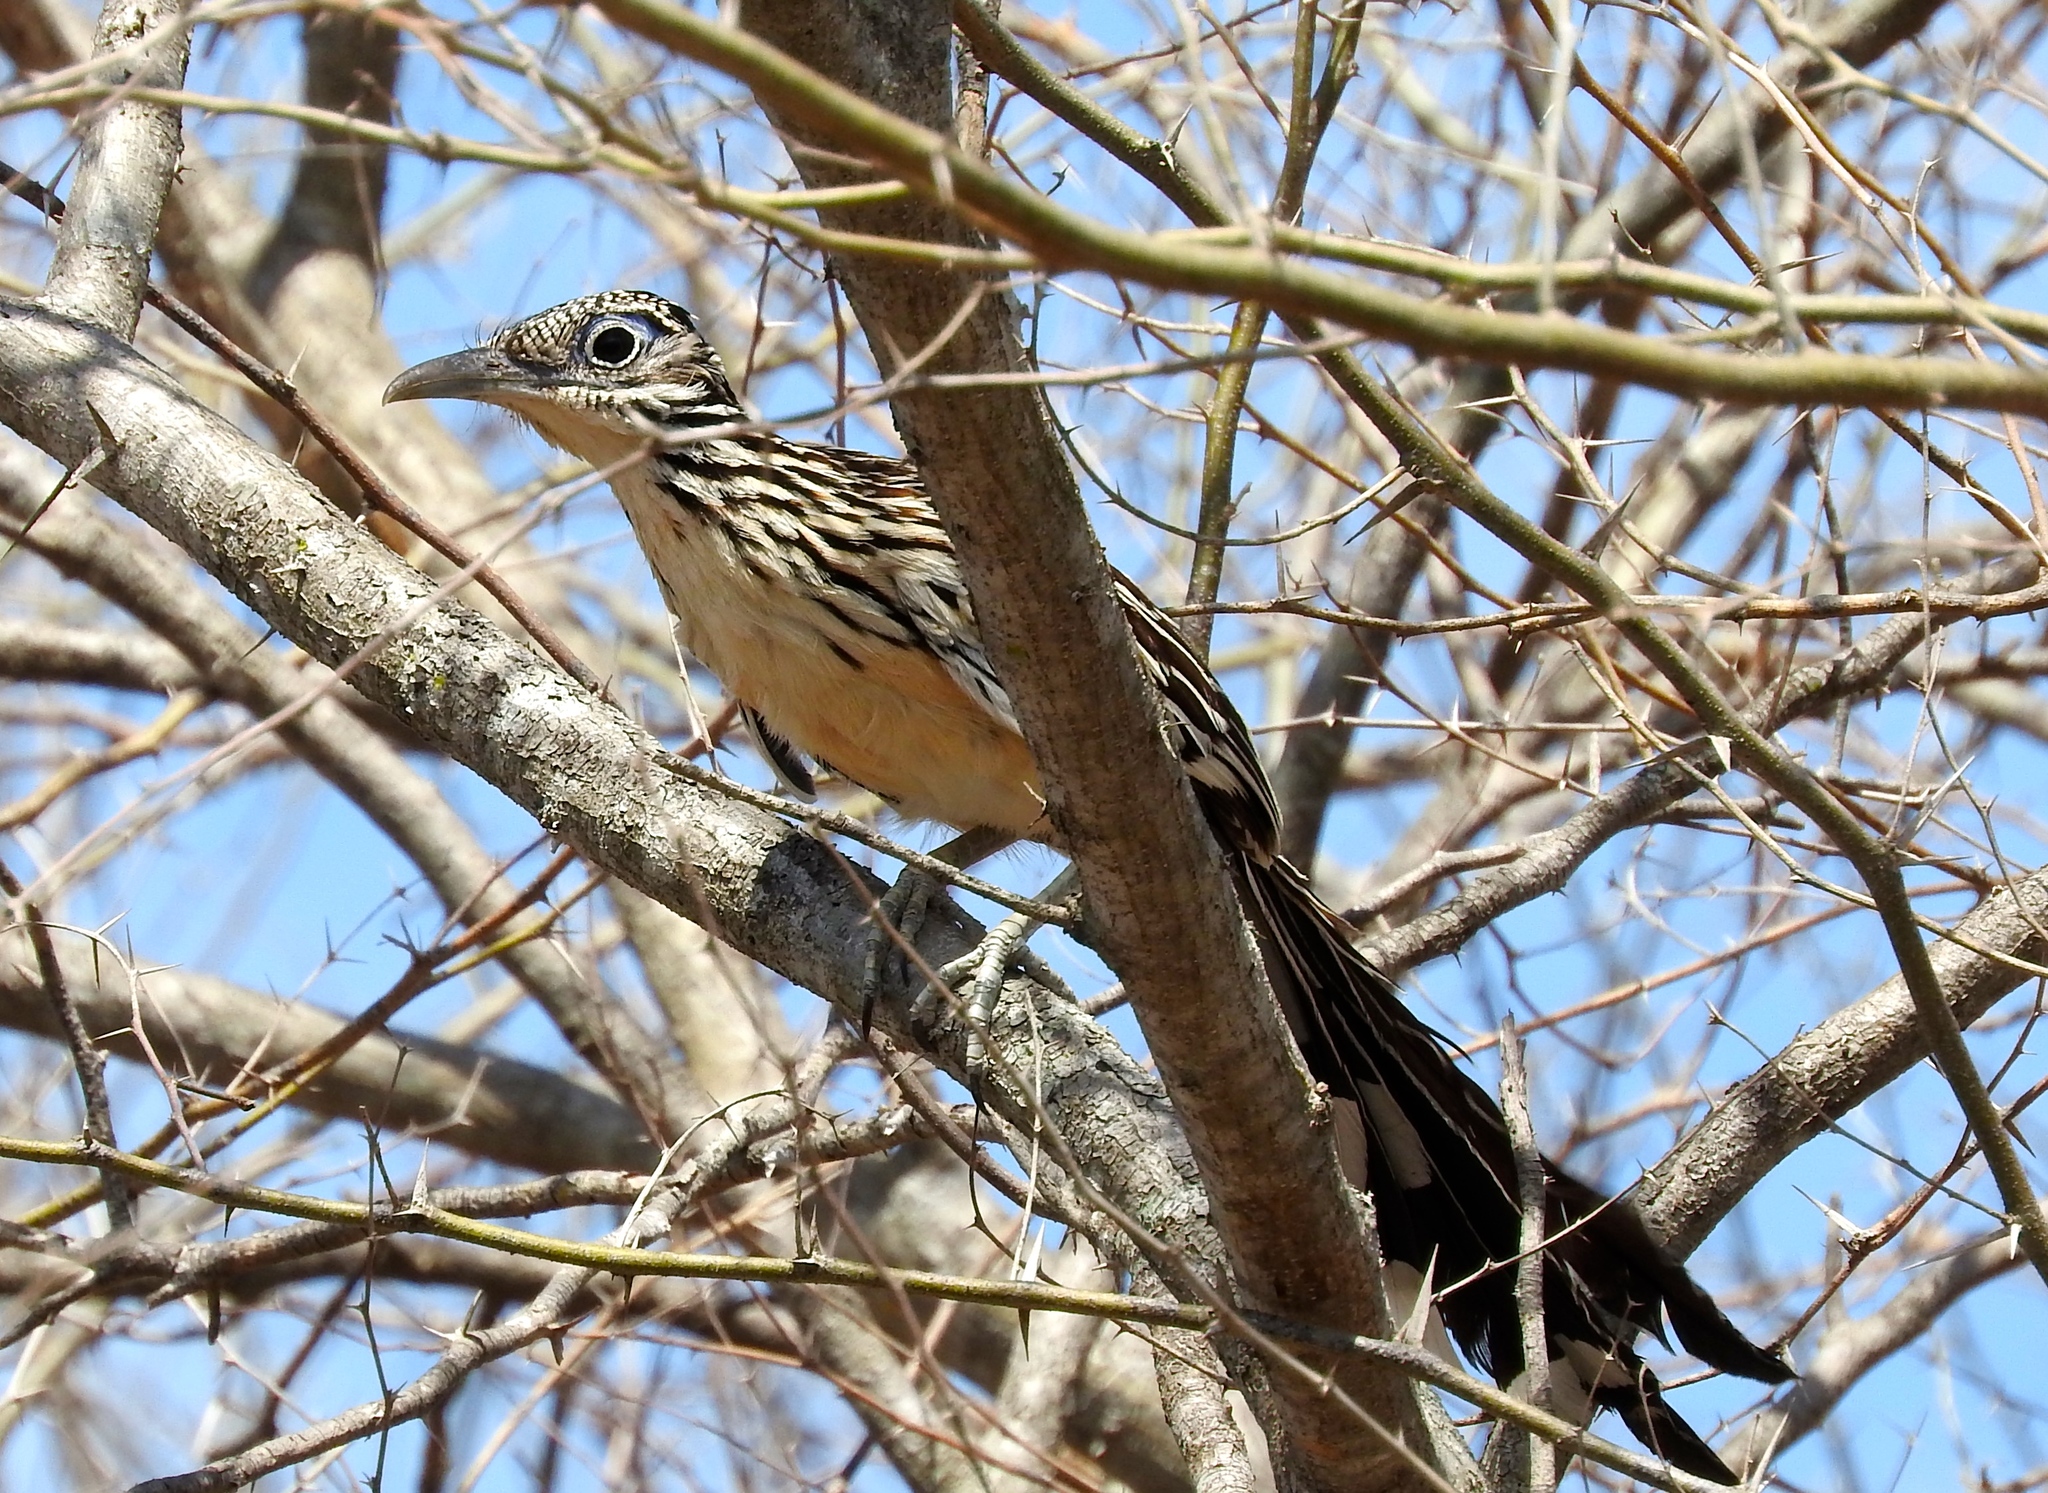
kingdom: Animalia
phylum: Chordata
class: Aves
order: Cuculiformes
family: Cuculidae
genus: Geococcyx
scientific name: Geococcyx velox
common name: Lesser roadrunner
